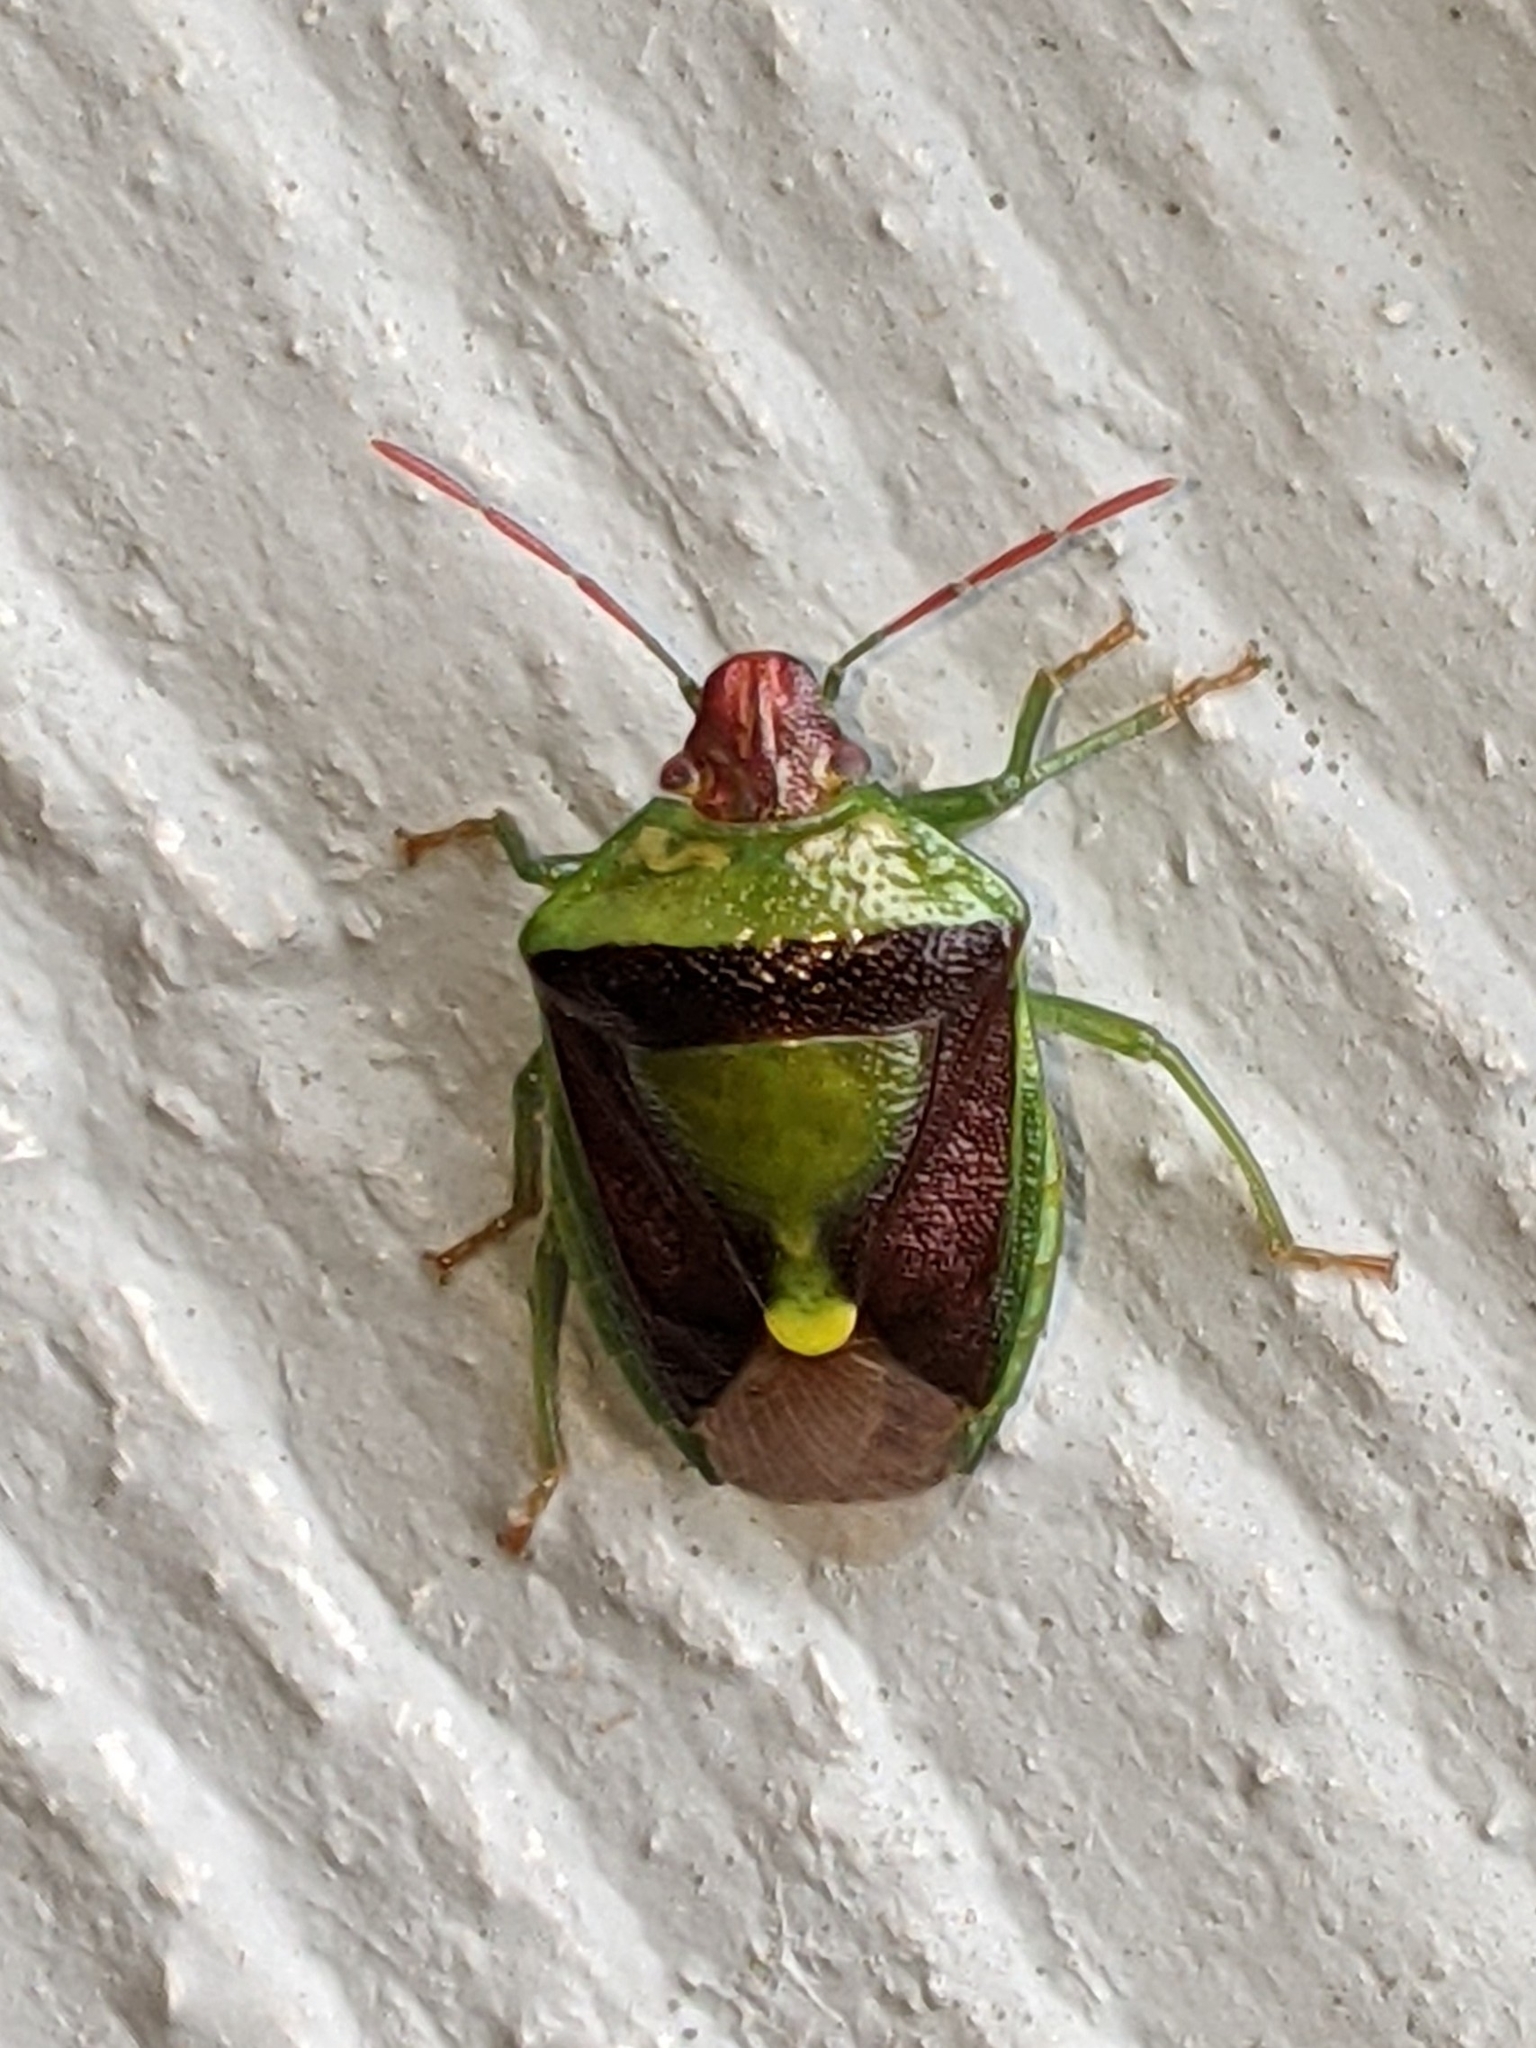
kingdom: Animalia
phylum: Arthropoda
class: Insecta
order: Hemiptera
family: Pentatomidae
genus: Banasa
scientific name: Banasa dimidiata
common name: Green burgundy stink bug
